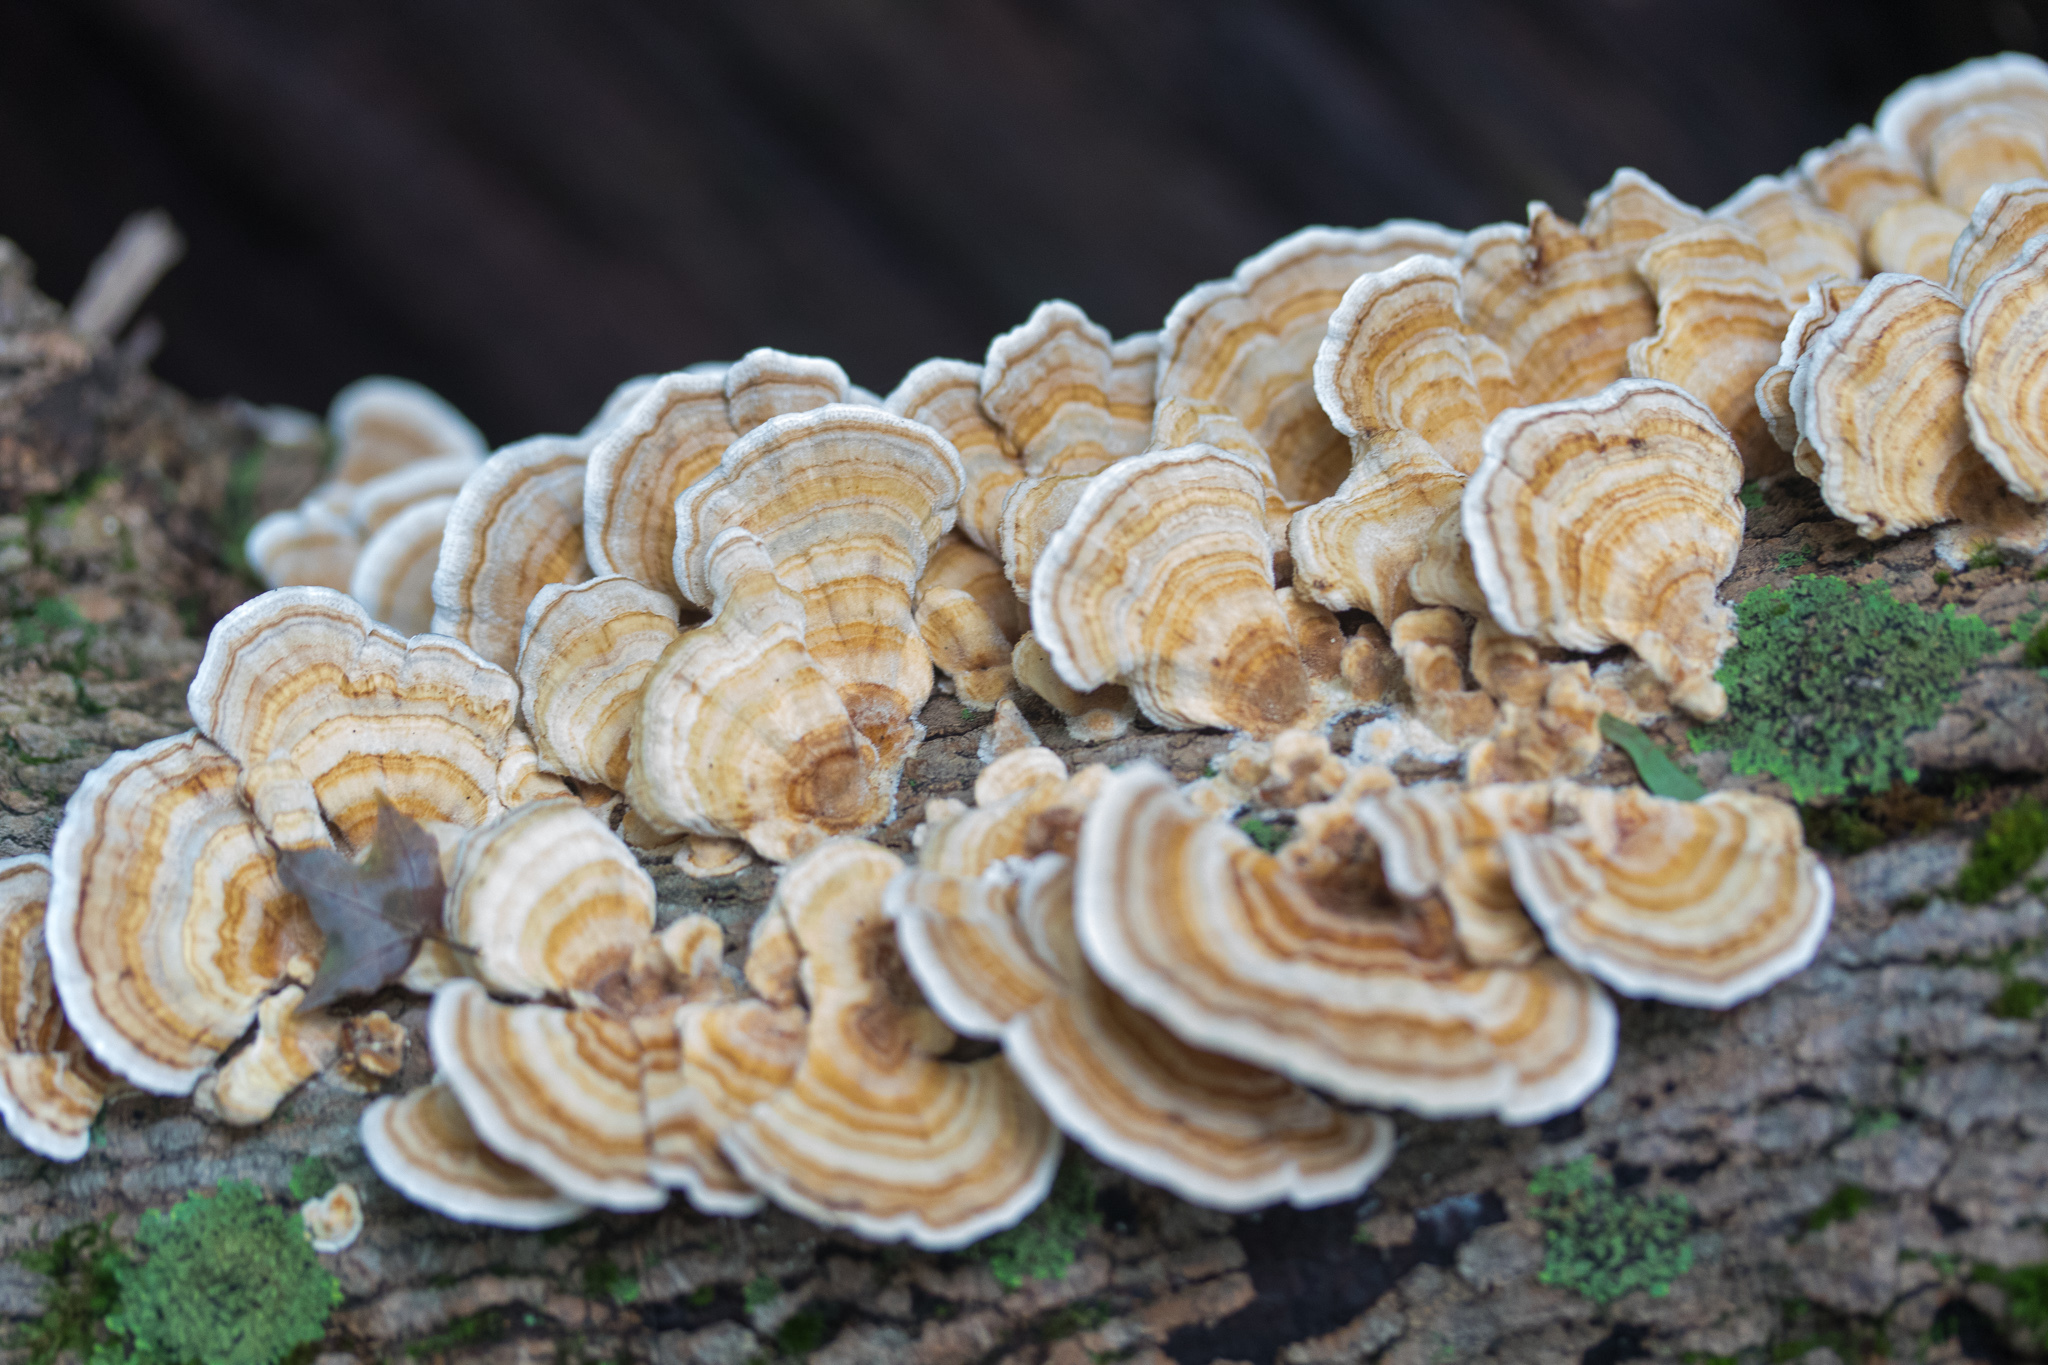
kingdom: Fungi
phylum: Basidiomycota
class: Agaricomycetes
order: Polyporales
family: Polyporaceae
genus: Trametes
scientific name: Trametes pubescens
